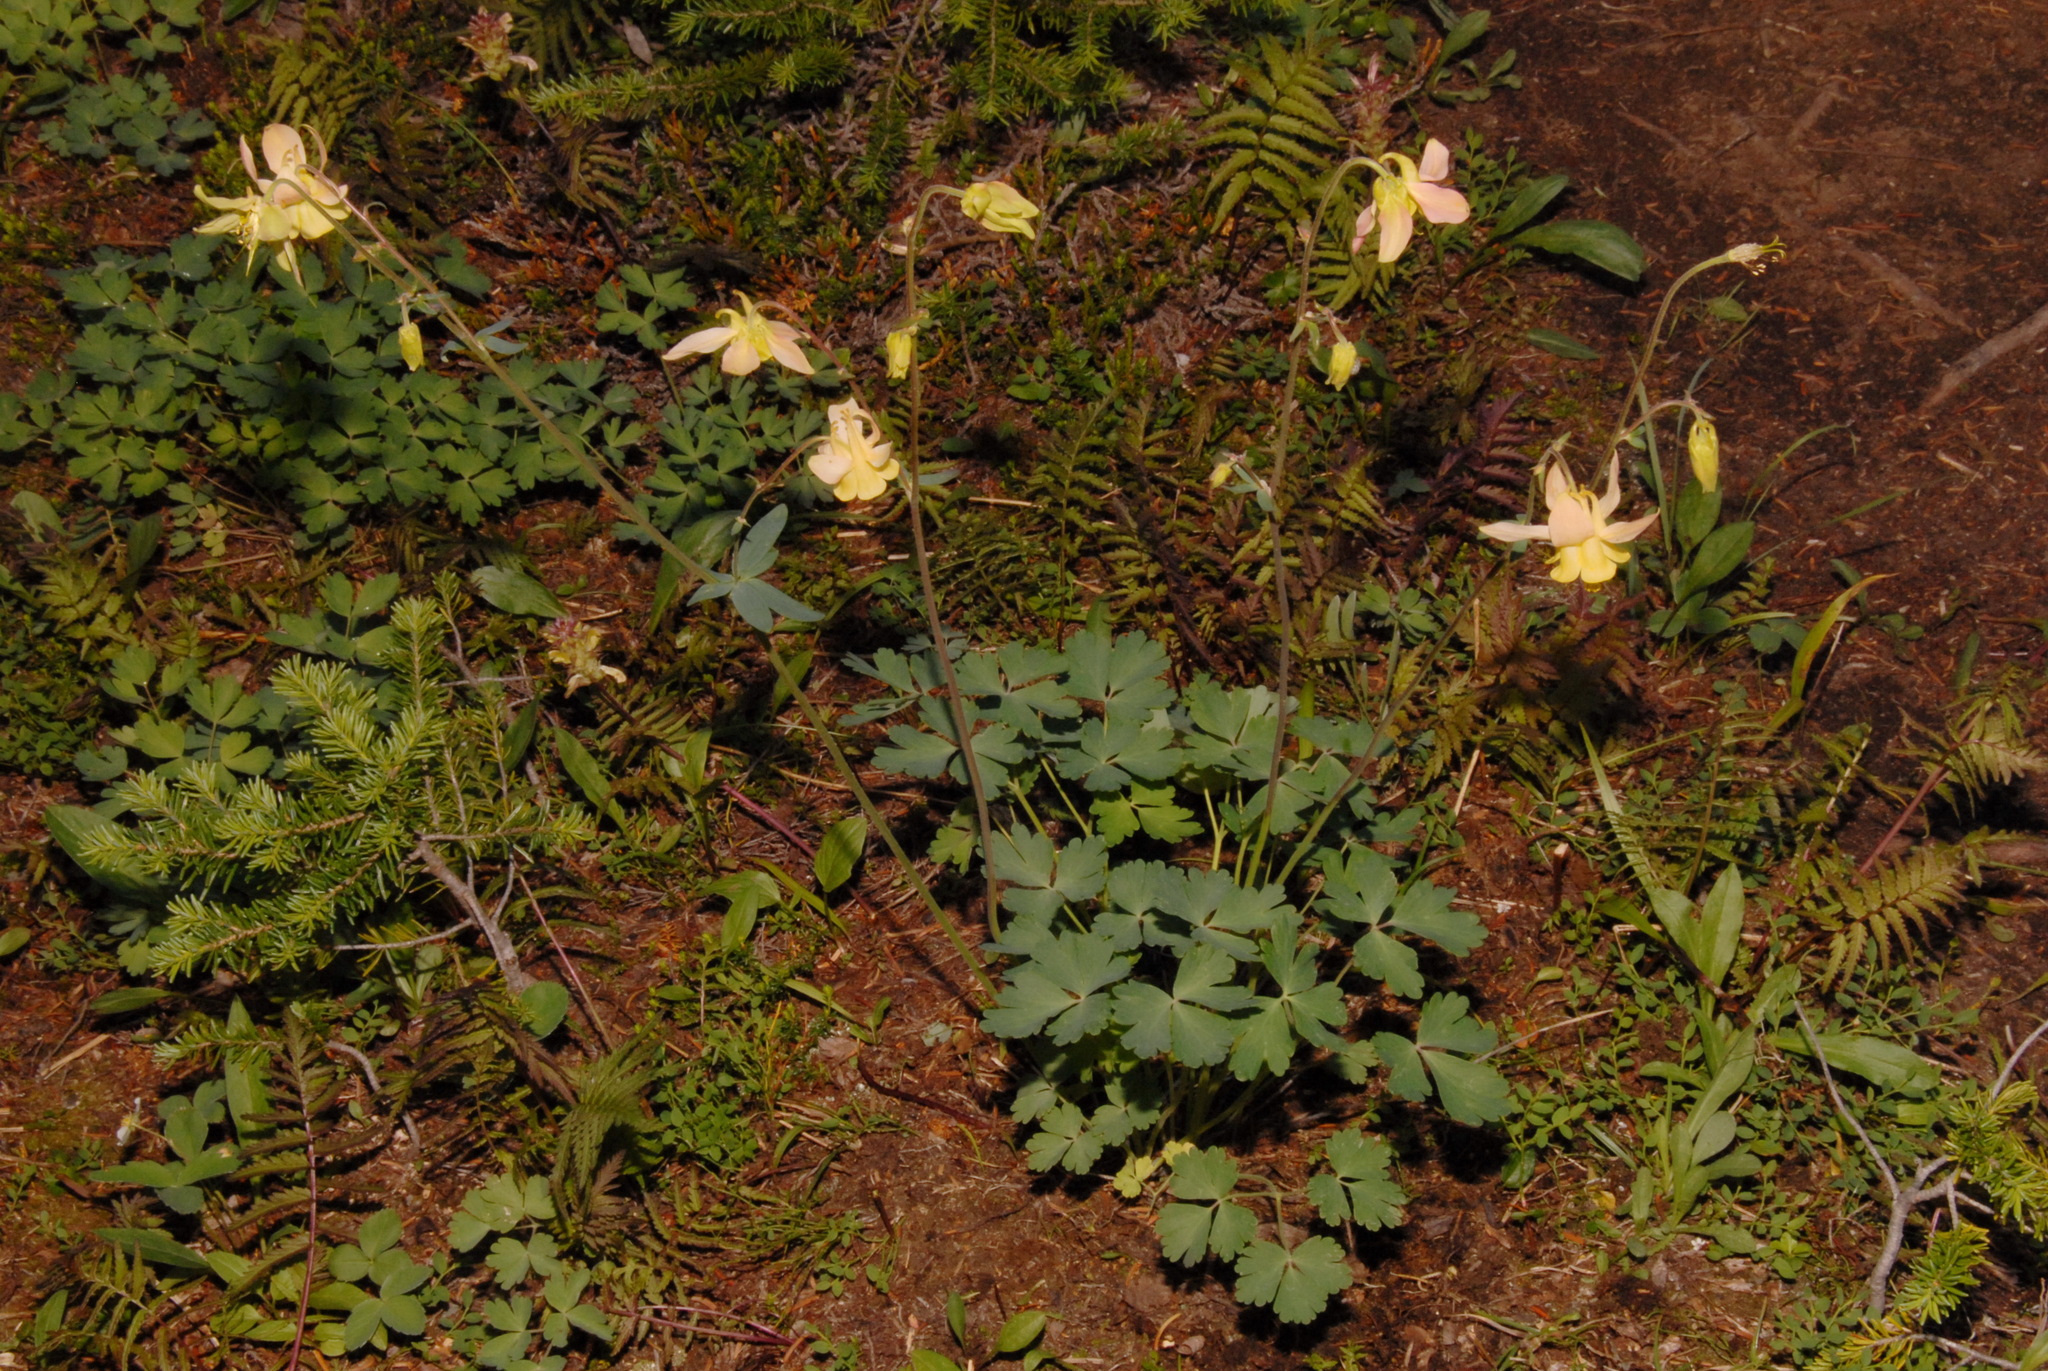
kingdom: Plantae
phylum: Tracheophyta
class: Magnoliopsida
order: Ranunculales
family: Ranunculaceae
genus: Aquilegia
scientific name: Aquilegia flavescens
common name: Yellow columbine
